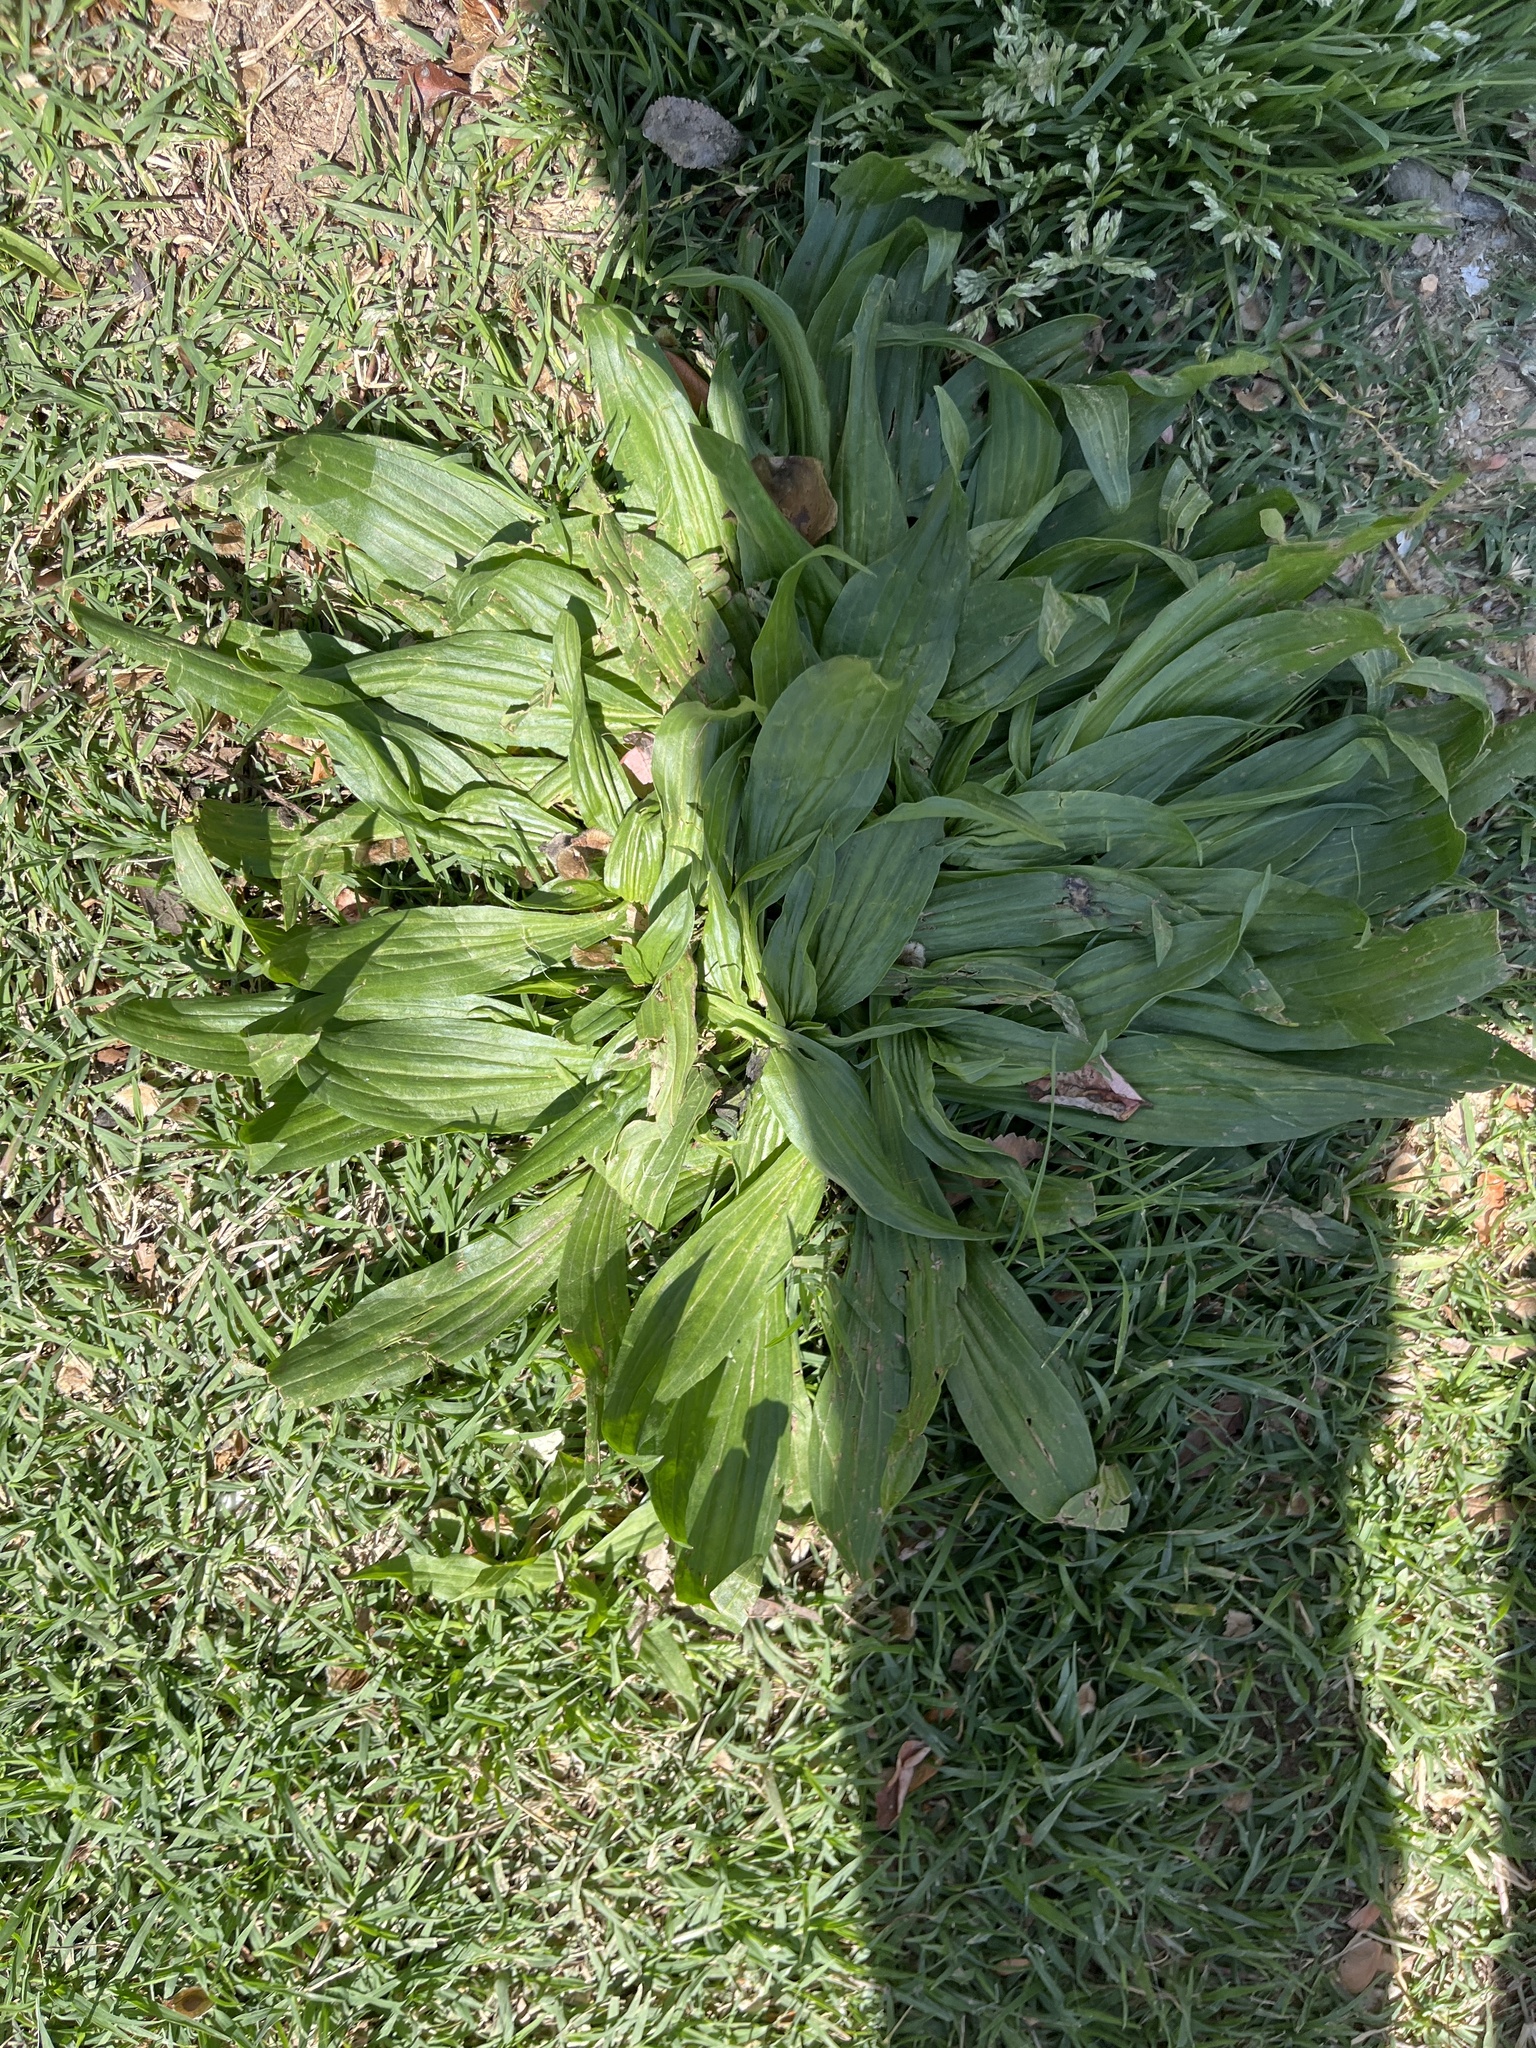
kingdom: Plantae
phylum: Tracheophyta
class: Magnoliopsida
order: Lamiales
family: Plantaginaceae
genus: Plantago
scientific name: Plantago lanceolata
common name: Ribwort plantain
